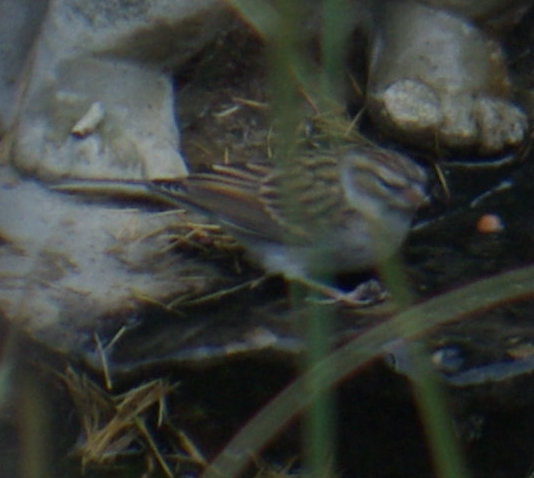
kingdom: Animalia
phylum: Chordata
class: Aves
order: Passeriformes
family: Passerellidae
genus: Spizella
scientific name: Spizella passerina
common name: Chipping sparrow
